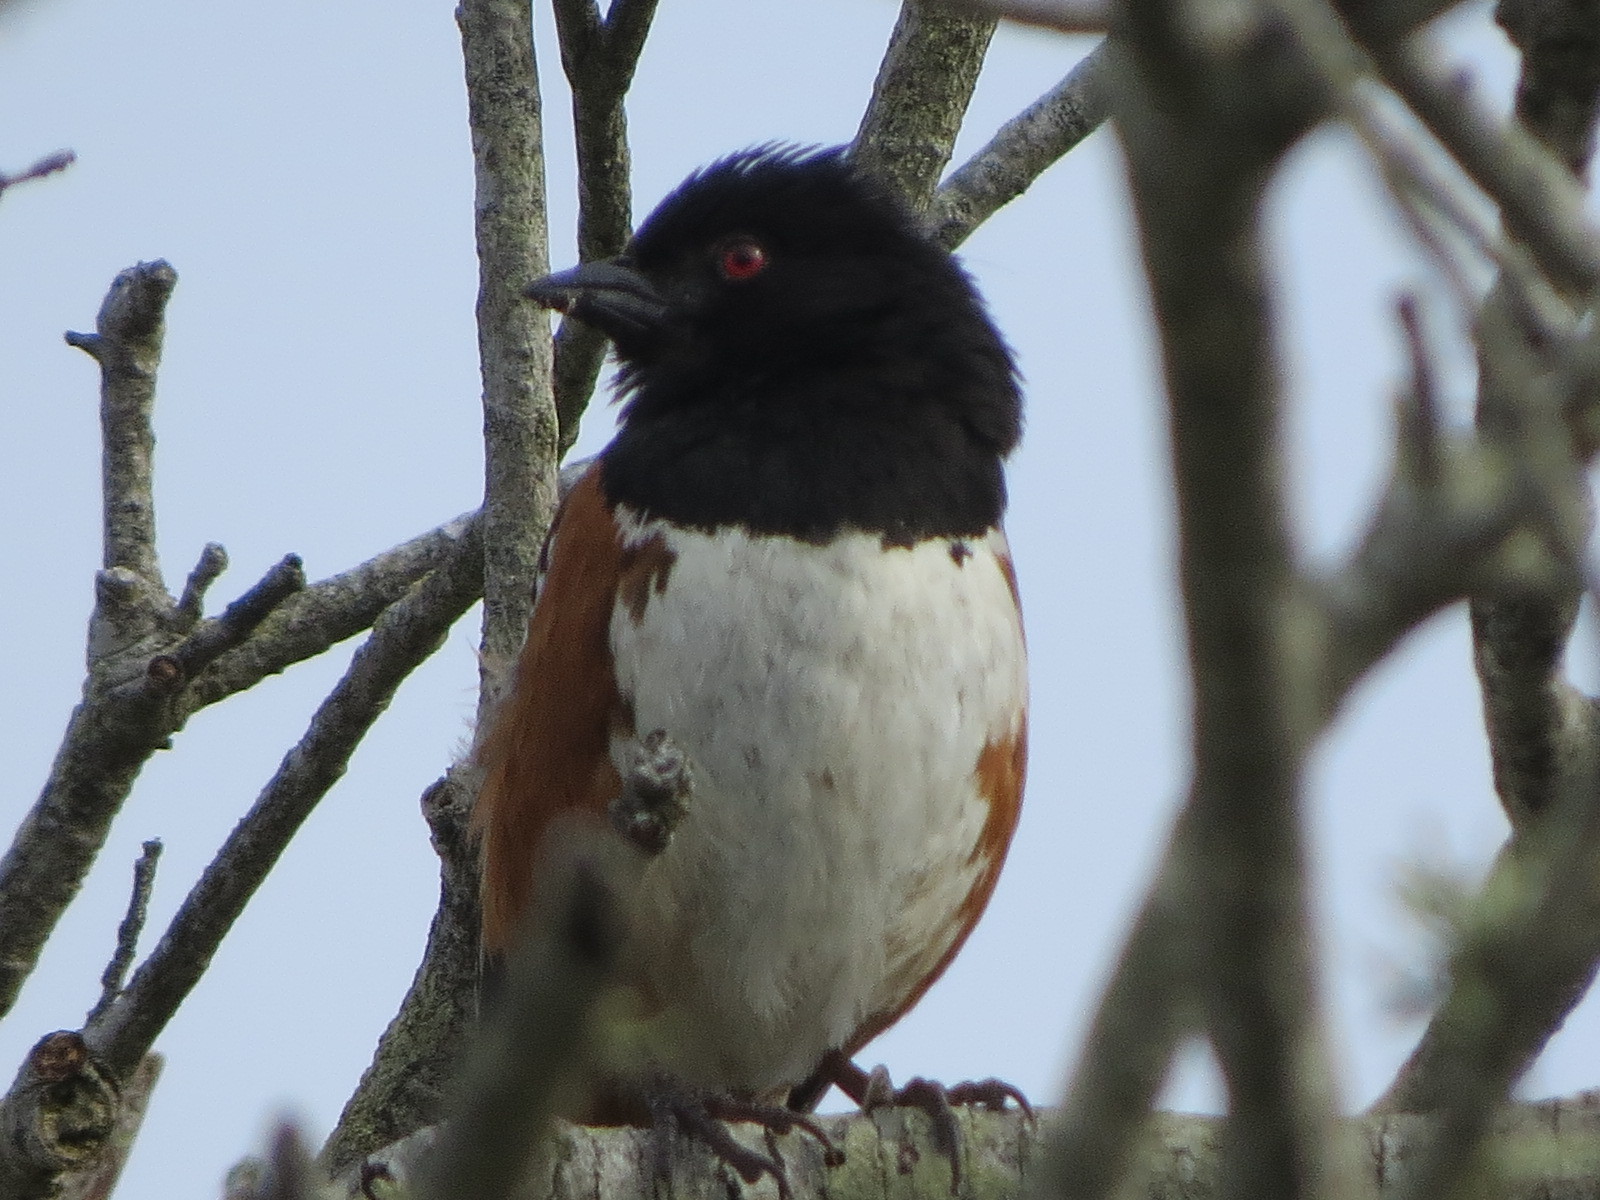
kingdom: Animalia
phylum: Chordata
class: Aves
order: Passeriformes
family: Passerellidae
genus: Pipilo
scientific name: Pipilo maculatus
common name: Spotted towhee
